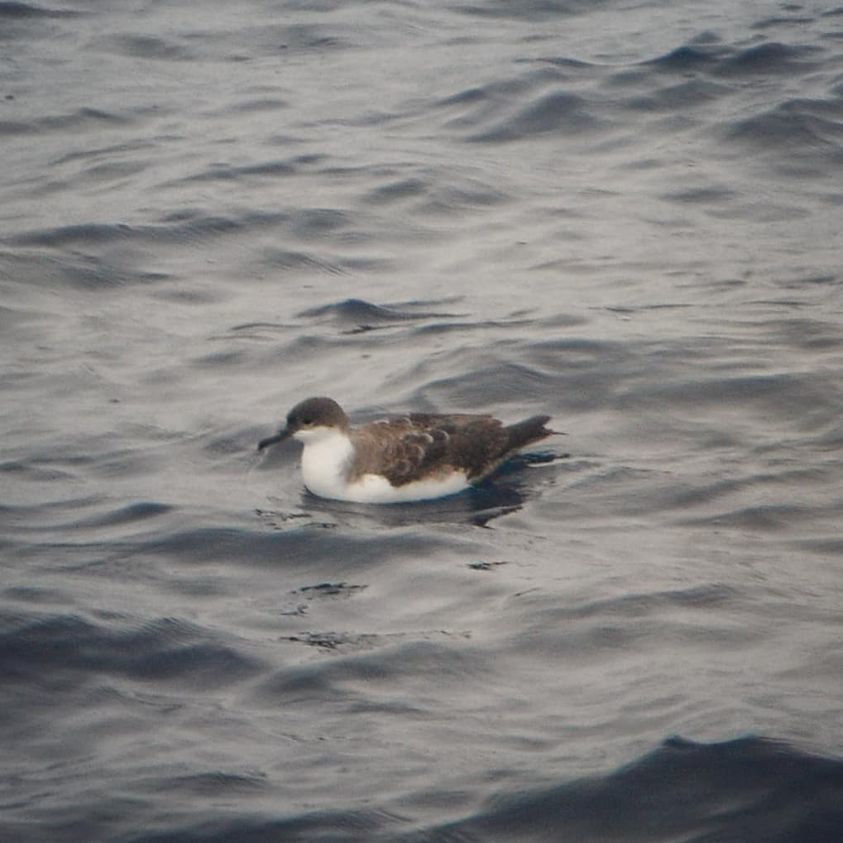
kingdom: Animalia
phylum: Chordata
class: Aves
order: Procellariiformes
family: Procellariidae
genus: Puffinus
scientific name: Puffinus gravis
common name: Great shearwater
